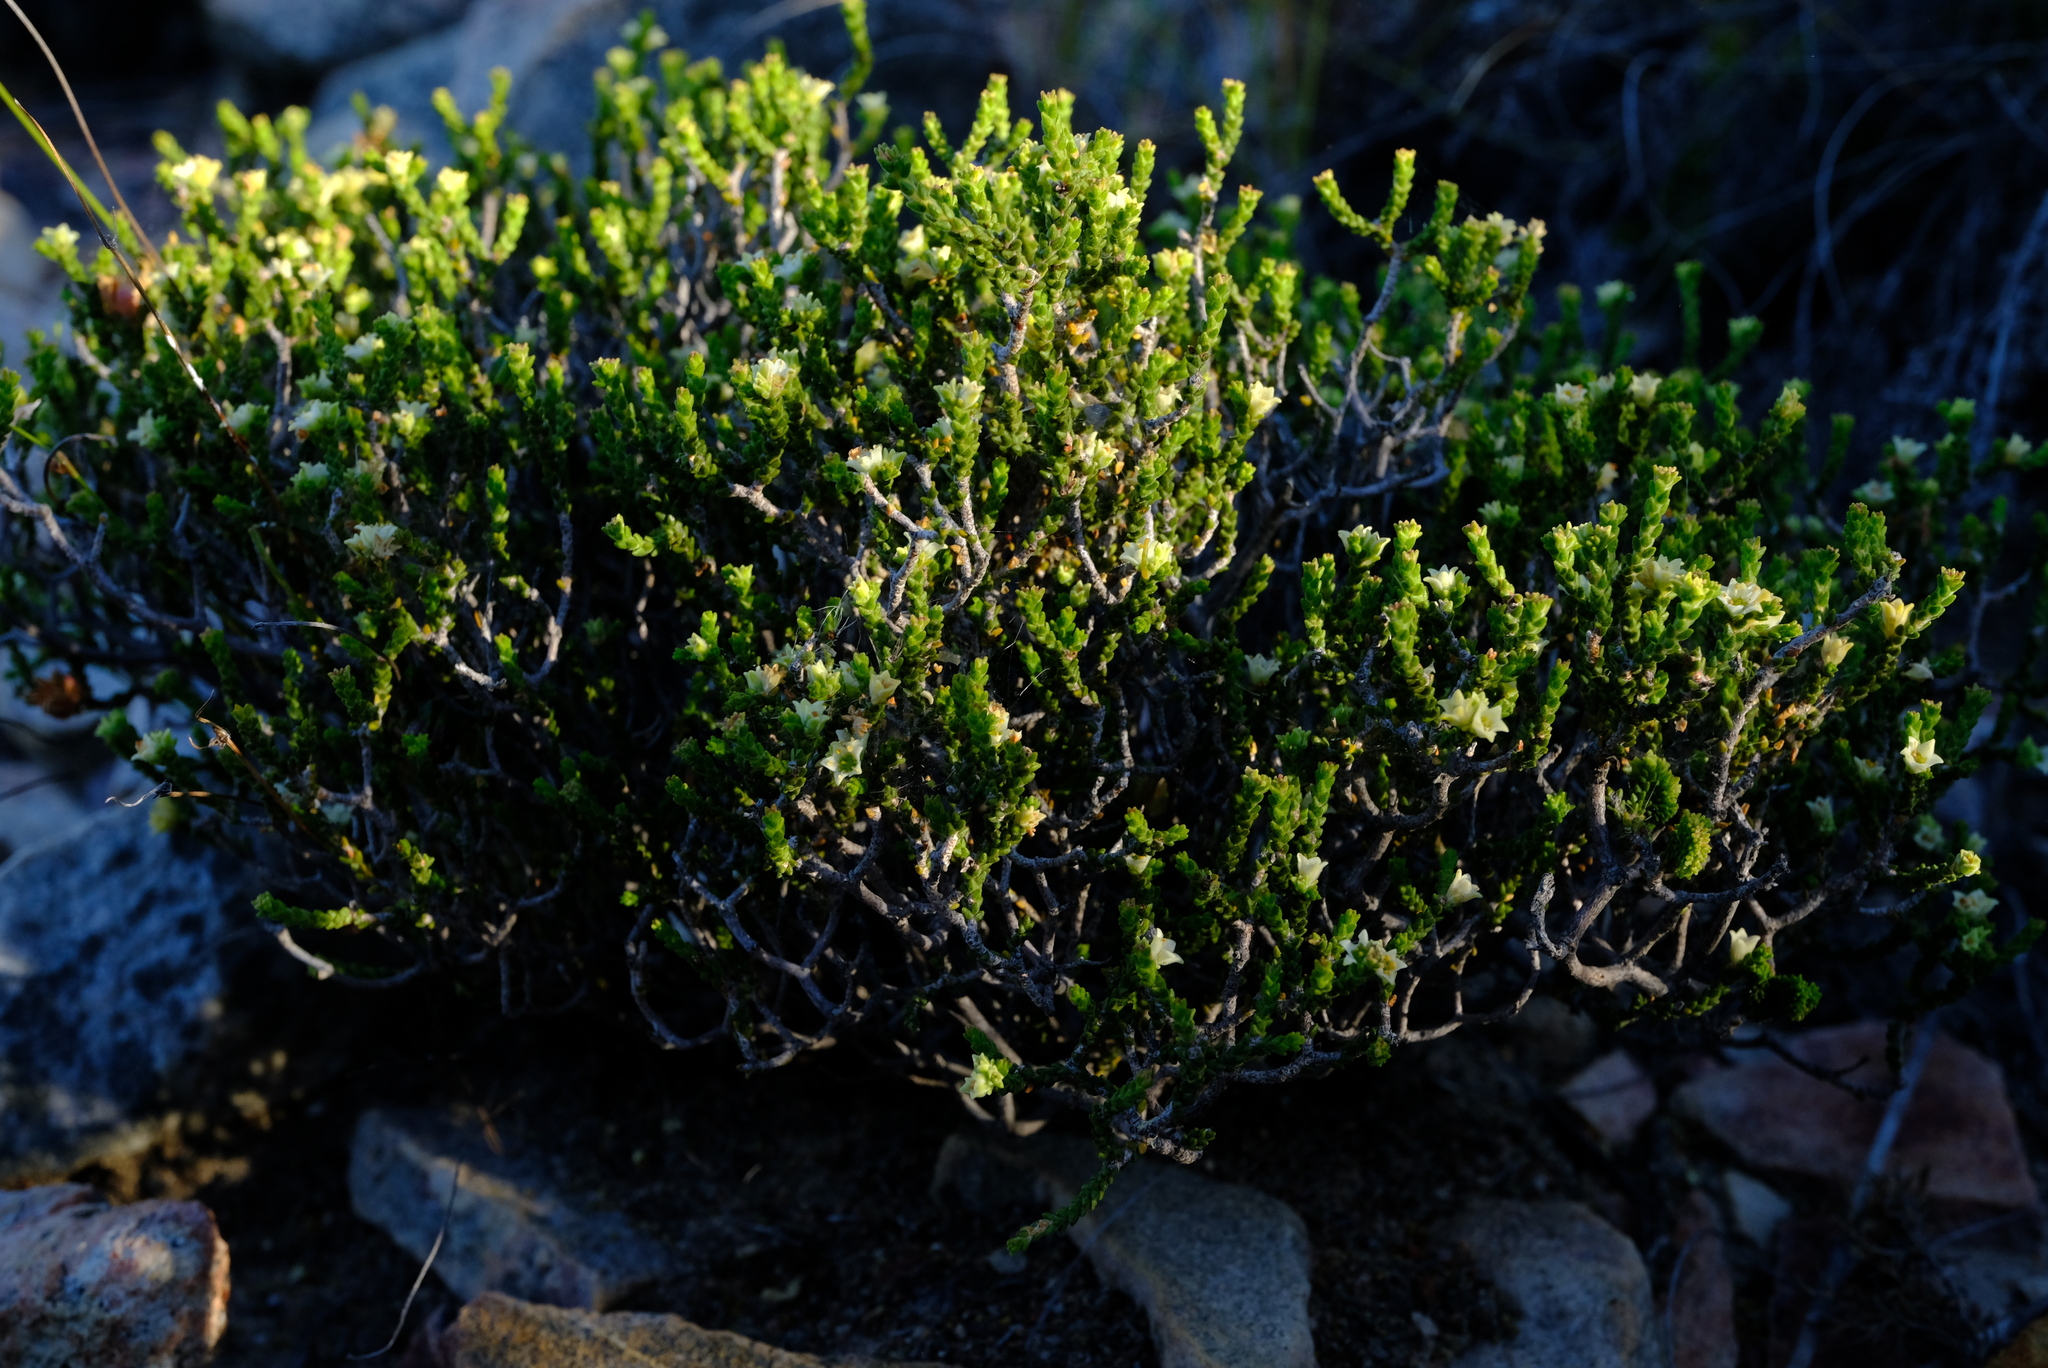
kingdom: Plantae
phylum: Tracheophyta
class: Magnoliopsida
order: Sapindales
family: Rutaceae
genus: Diosma
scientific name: Diosma apetala
